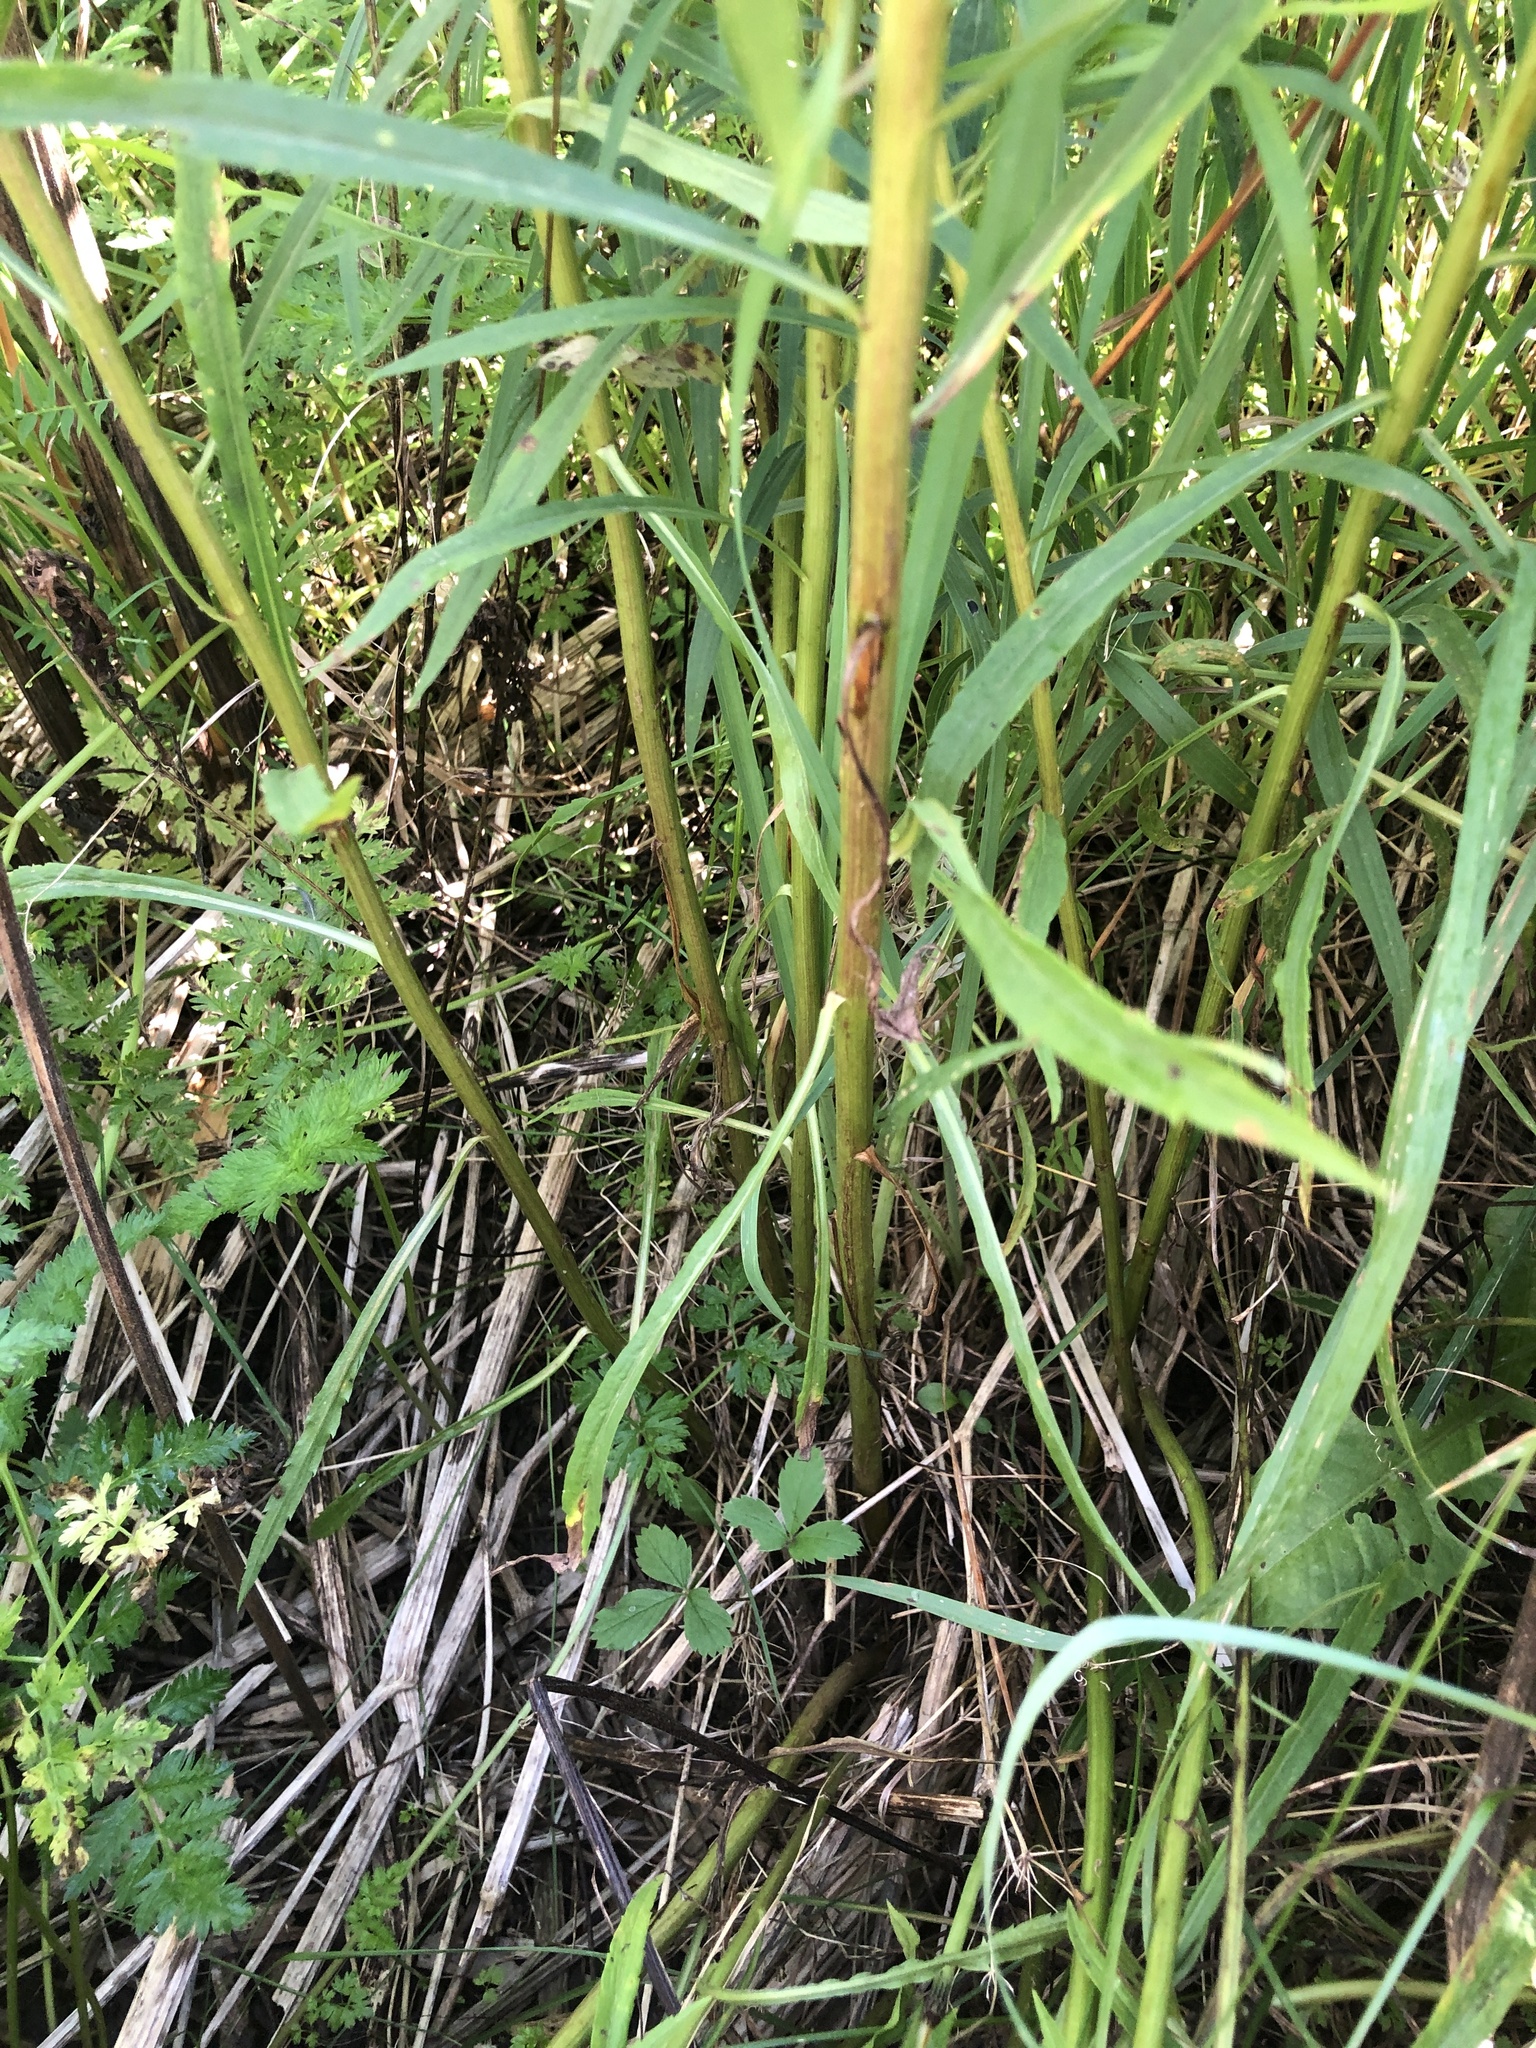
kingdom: Plantae
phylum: Tracheophyta
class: Magnoliopsida
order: Asterales
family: Asteraceae
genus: Solidago
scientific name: Solidago canadensis
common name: Canada goldenrod
